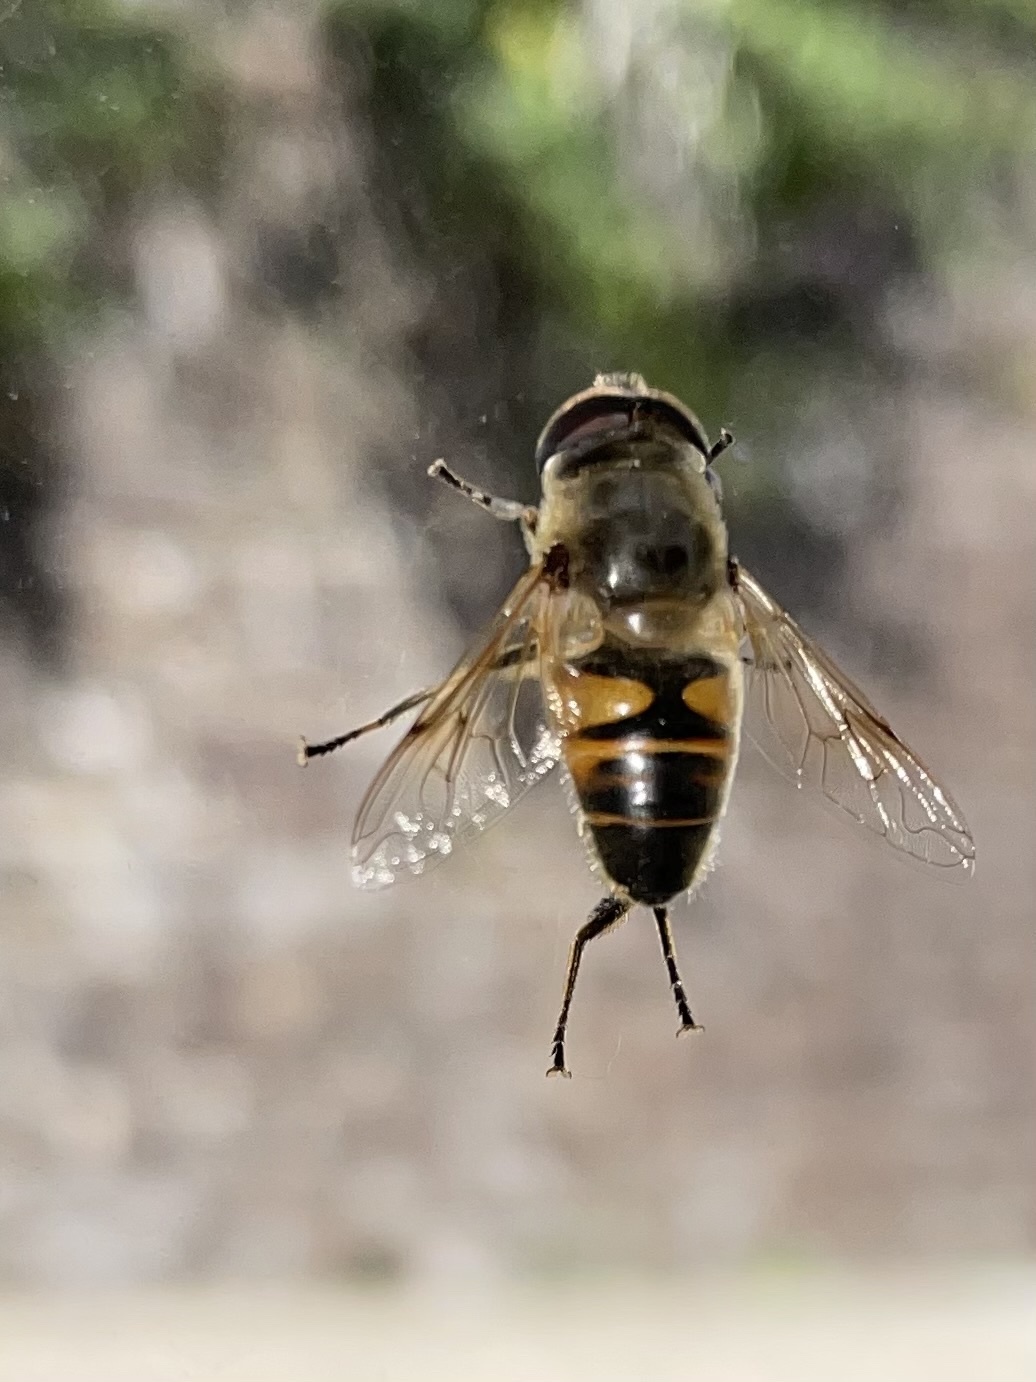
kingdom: Animalia
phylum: Arthropoda
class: Insecta
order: Diptera
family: Syrphidae
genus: Eristalis
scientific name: Eristalis tenax
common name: Drone fly
